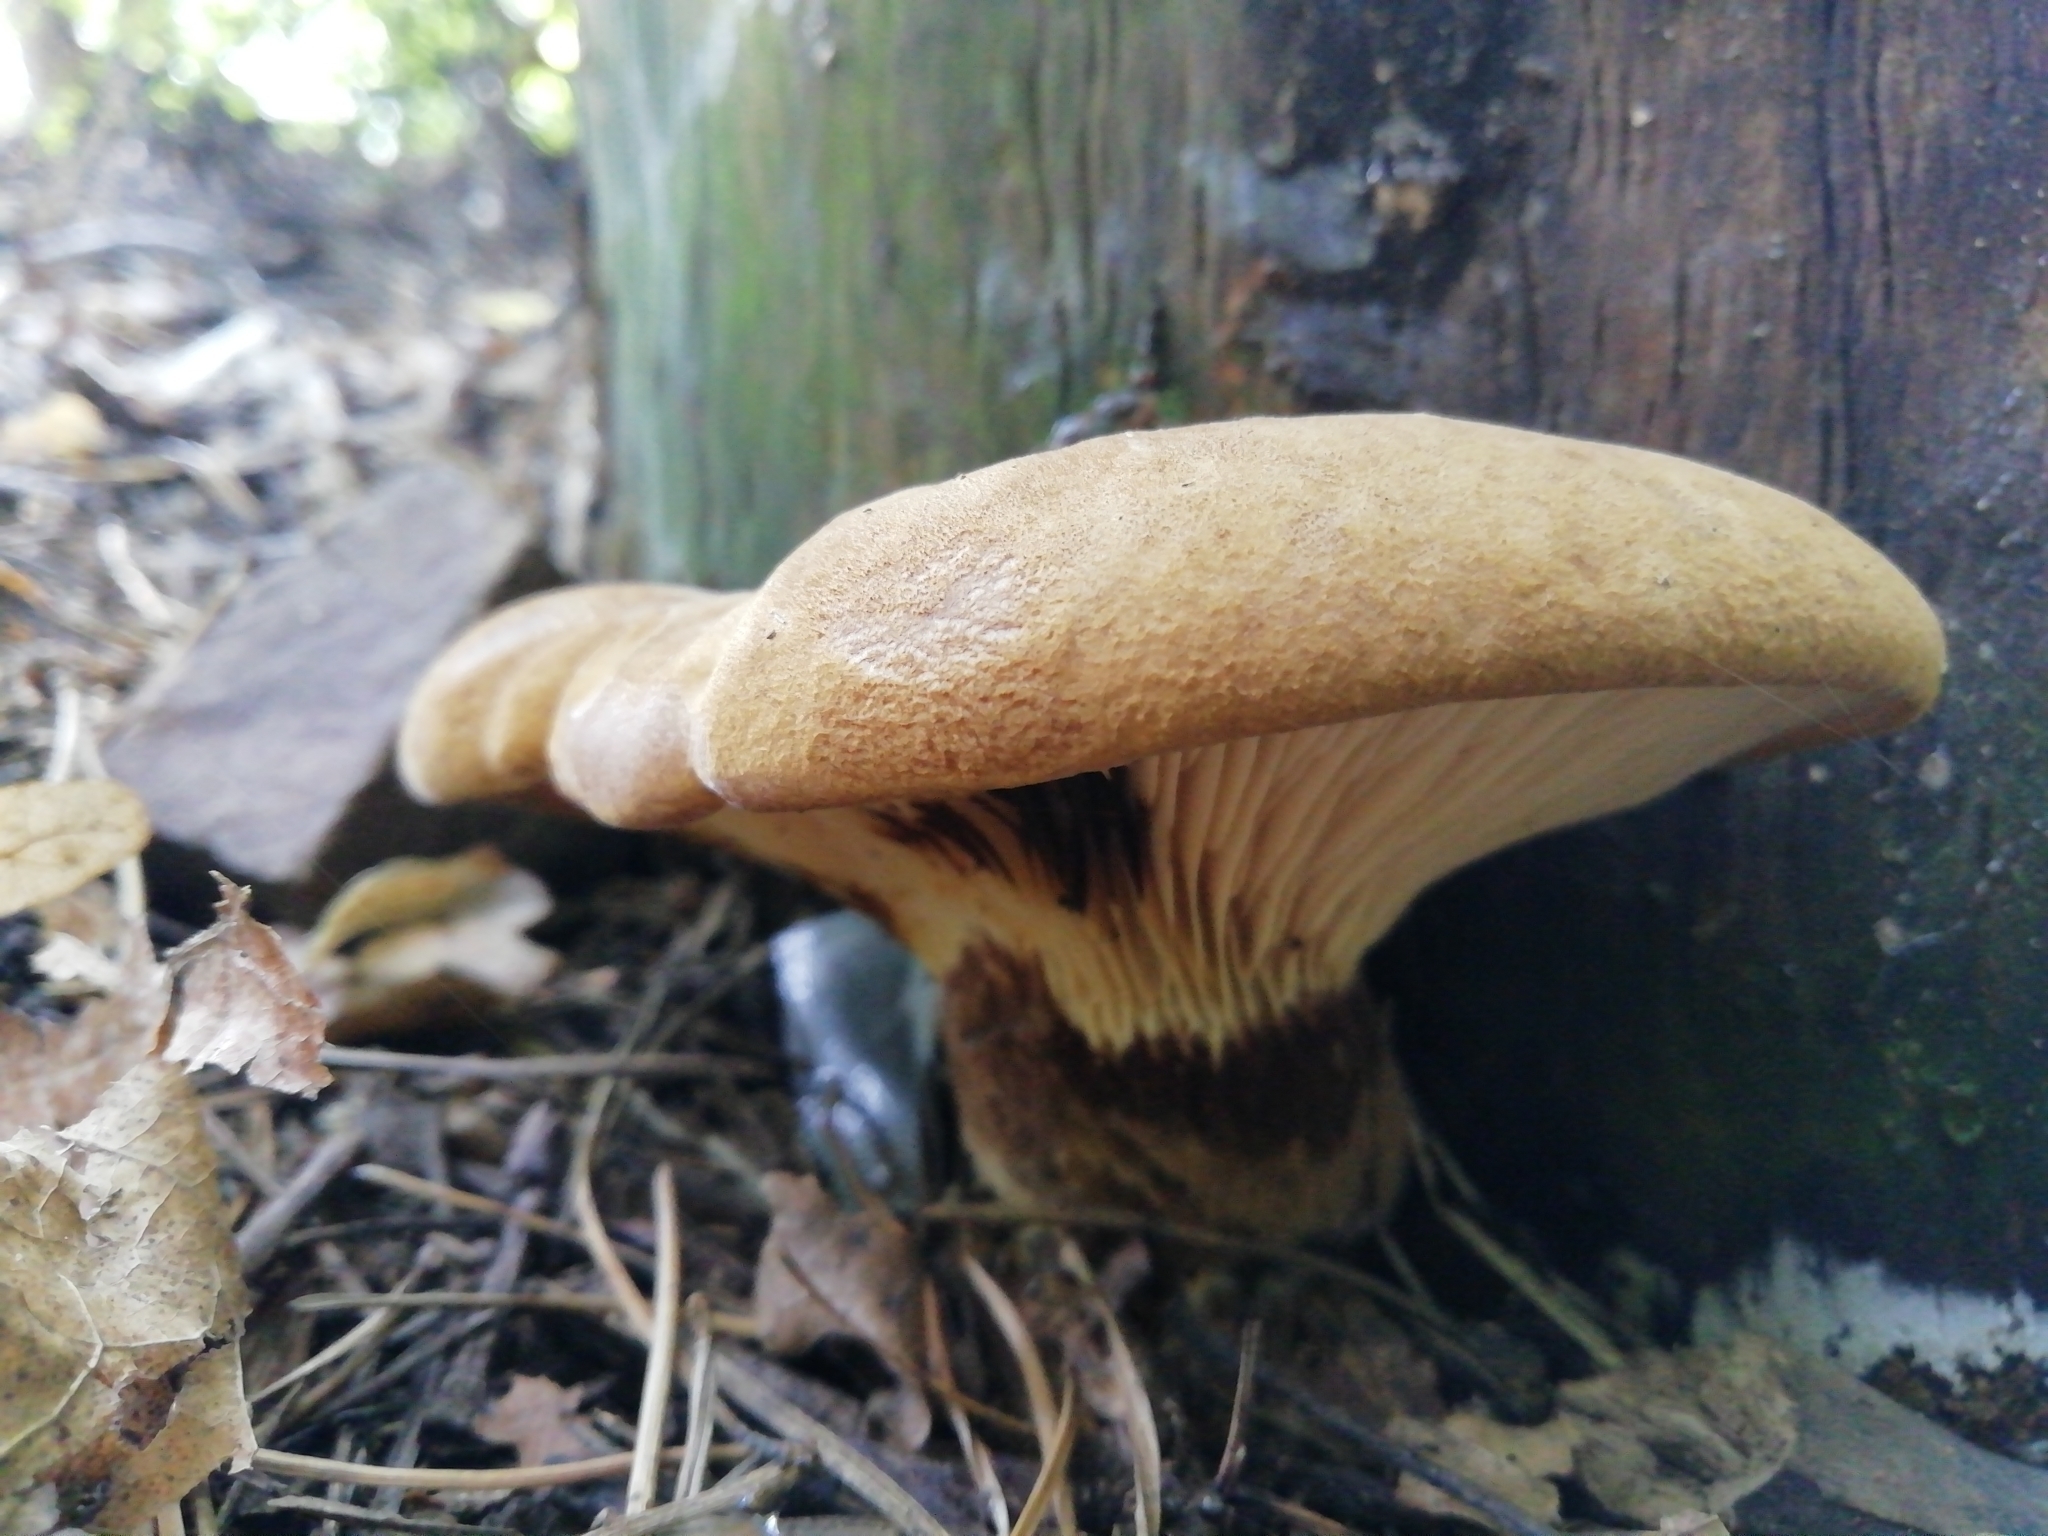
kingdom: Fungi
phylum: Basidiomycota
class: Agaricomycetes
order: Boletales
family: Tapinellaceae
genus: Tapinella
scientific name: Tapinella atrotomentosa
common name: Velvet rollrim
